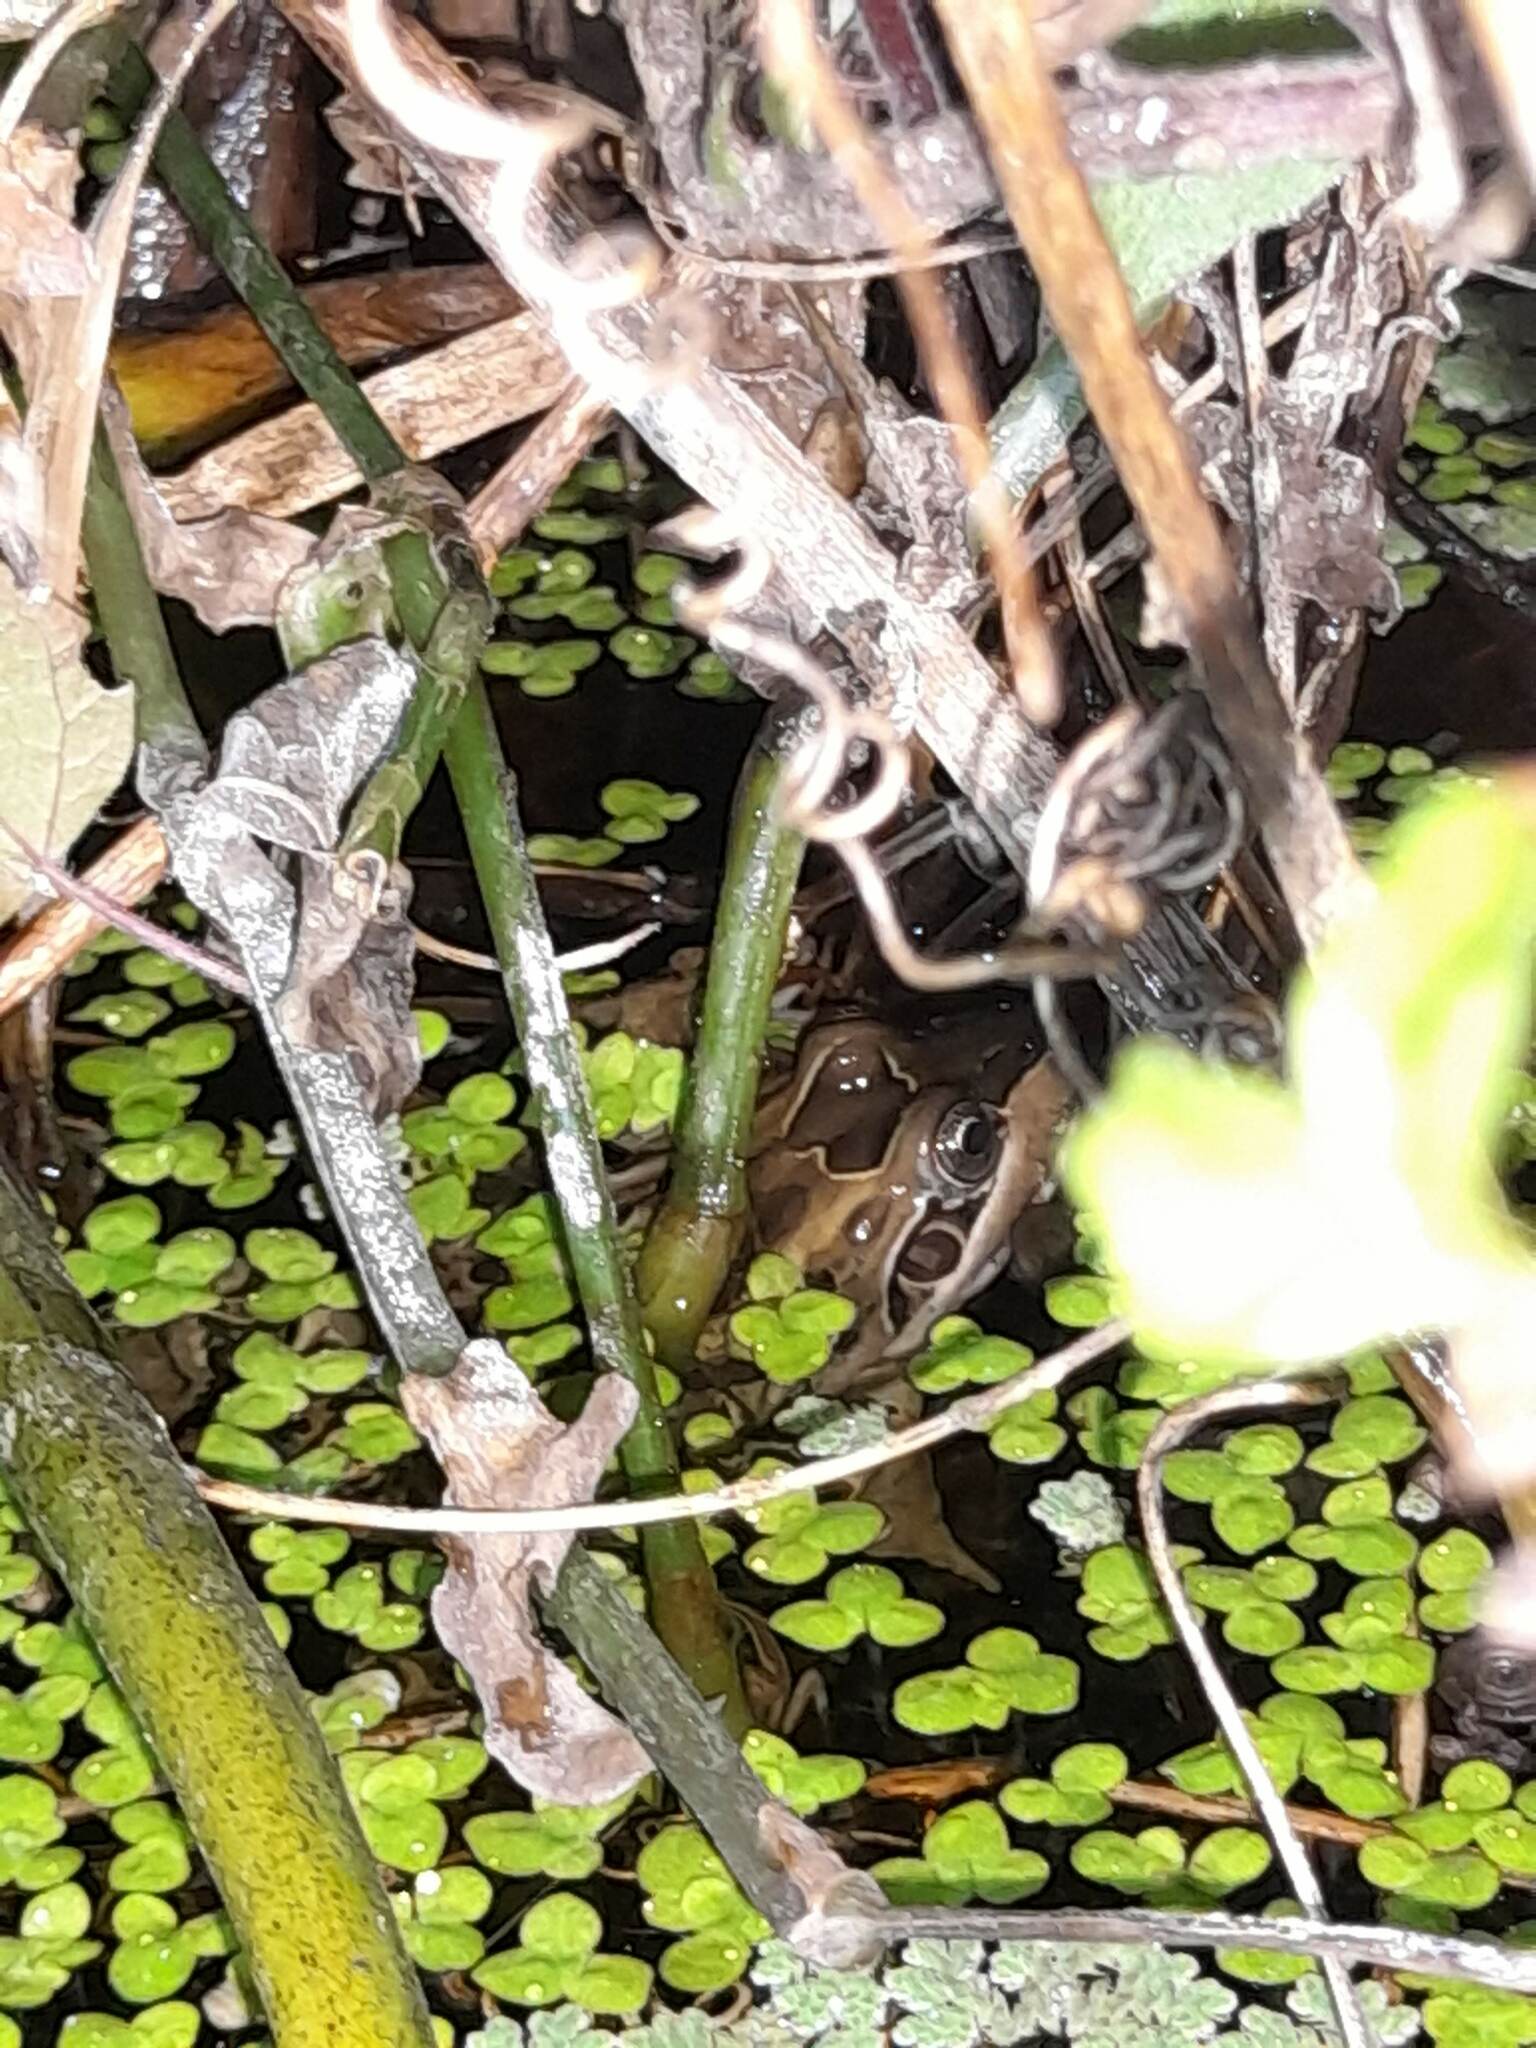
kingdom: Animalia
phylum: Chordata
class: Amphibia
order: Anura
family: Leptodactylidae
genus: Leptodactylus
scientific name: Leptodactylus luctator
